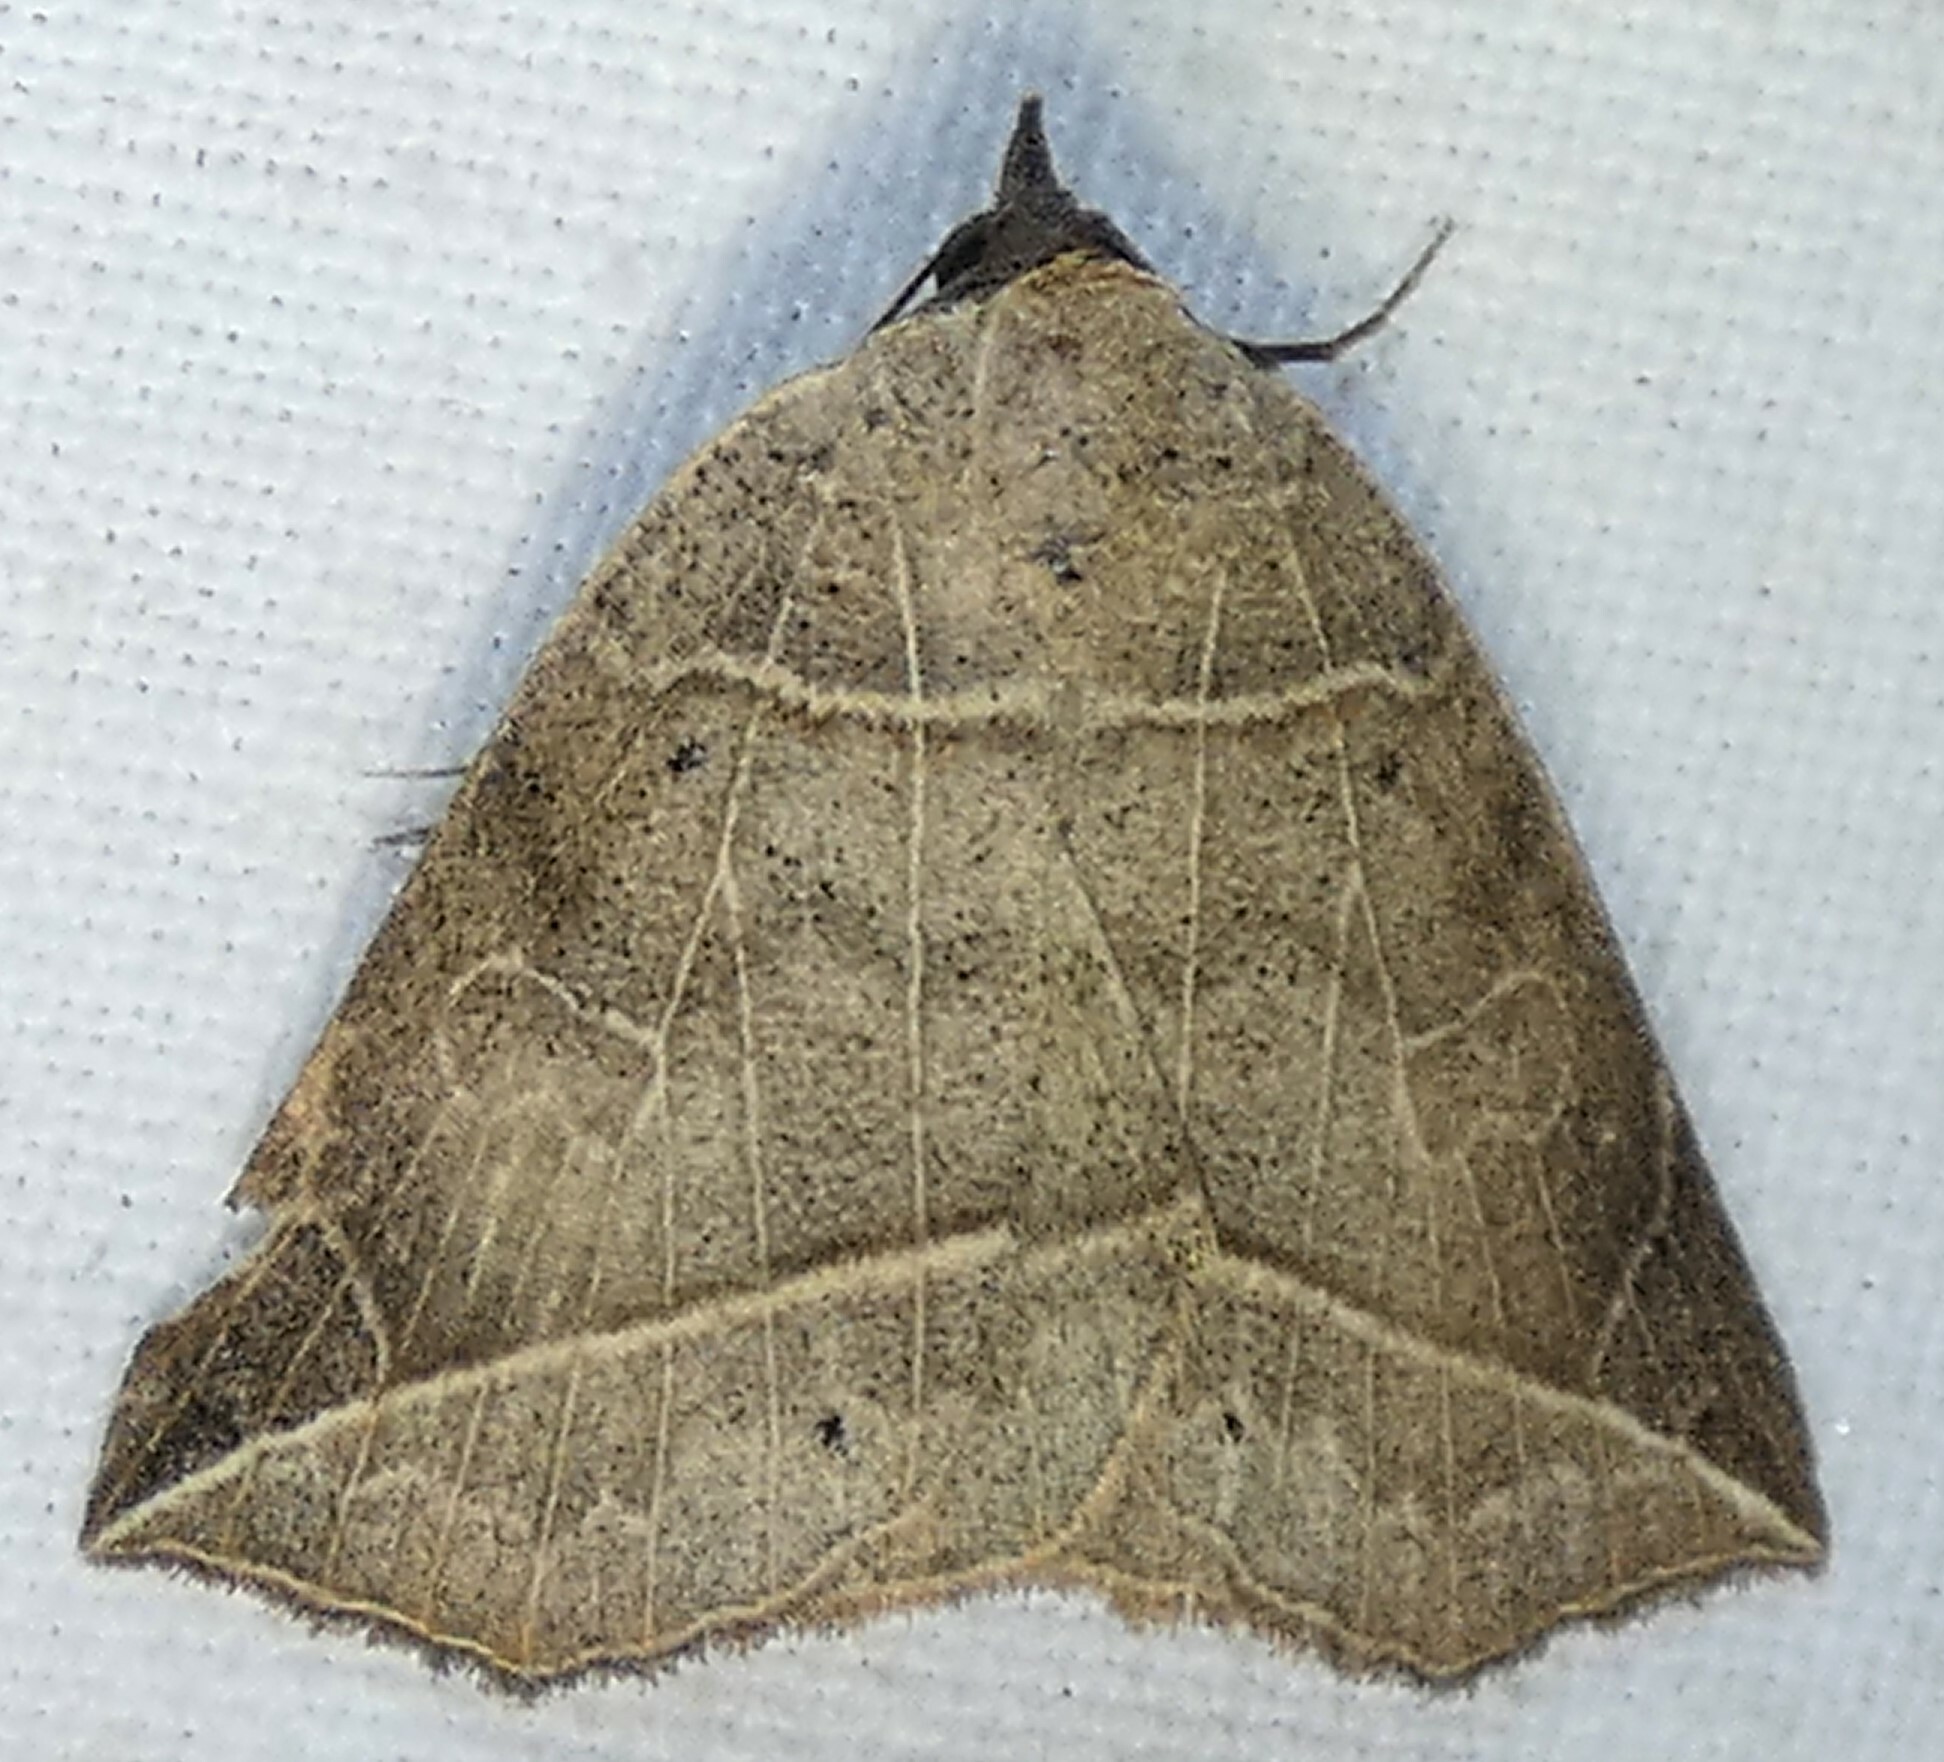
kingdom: Animalia
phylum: Arthropoda
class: Insecta
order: Lepidoptera
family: Erebidae
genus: Isogona
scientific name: Isogona tenuis
